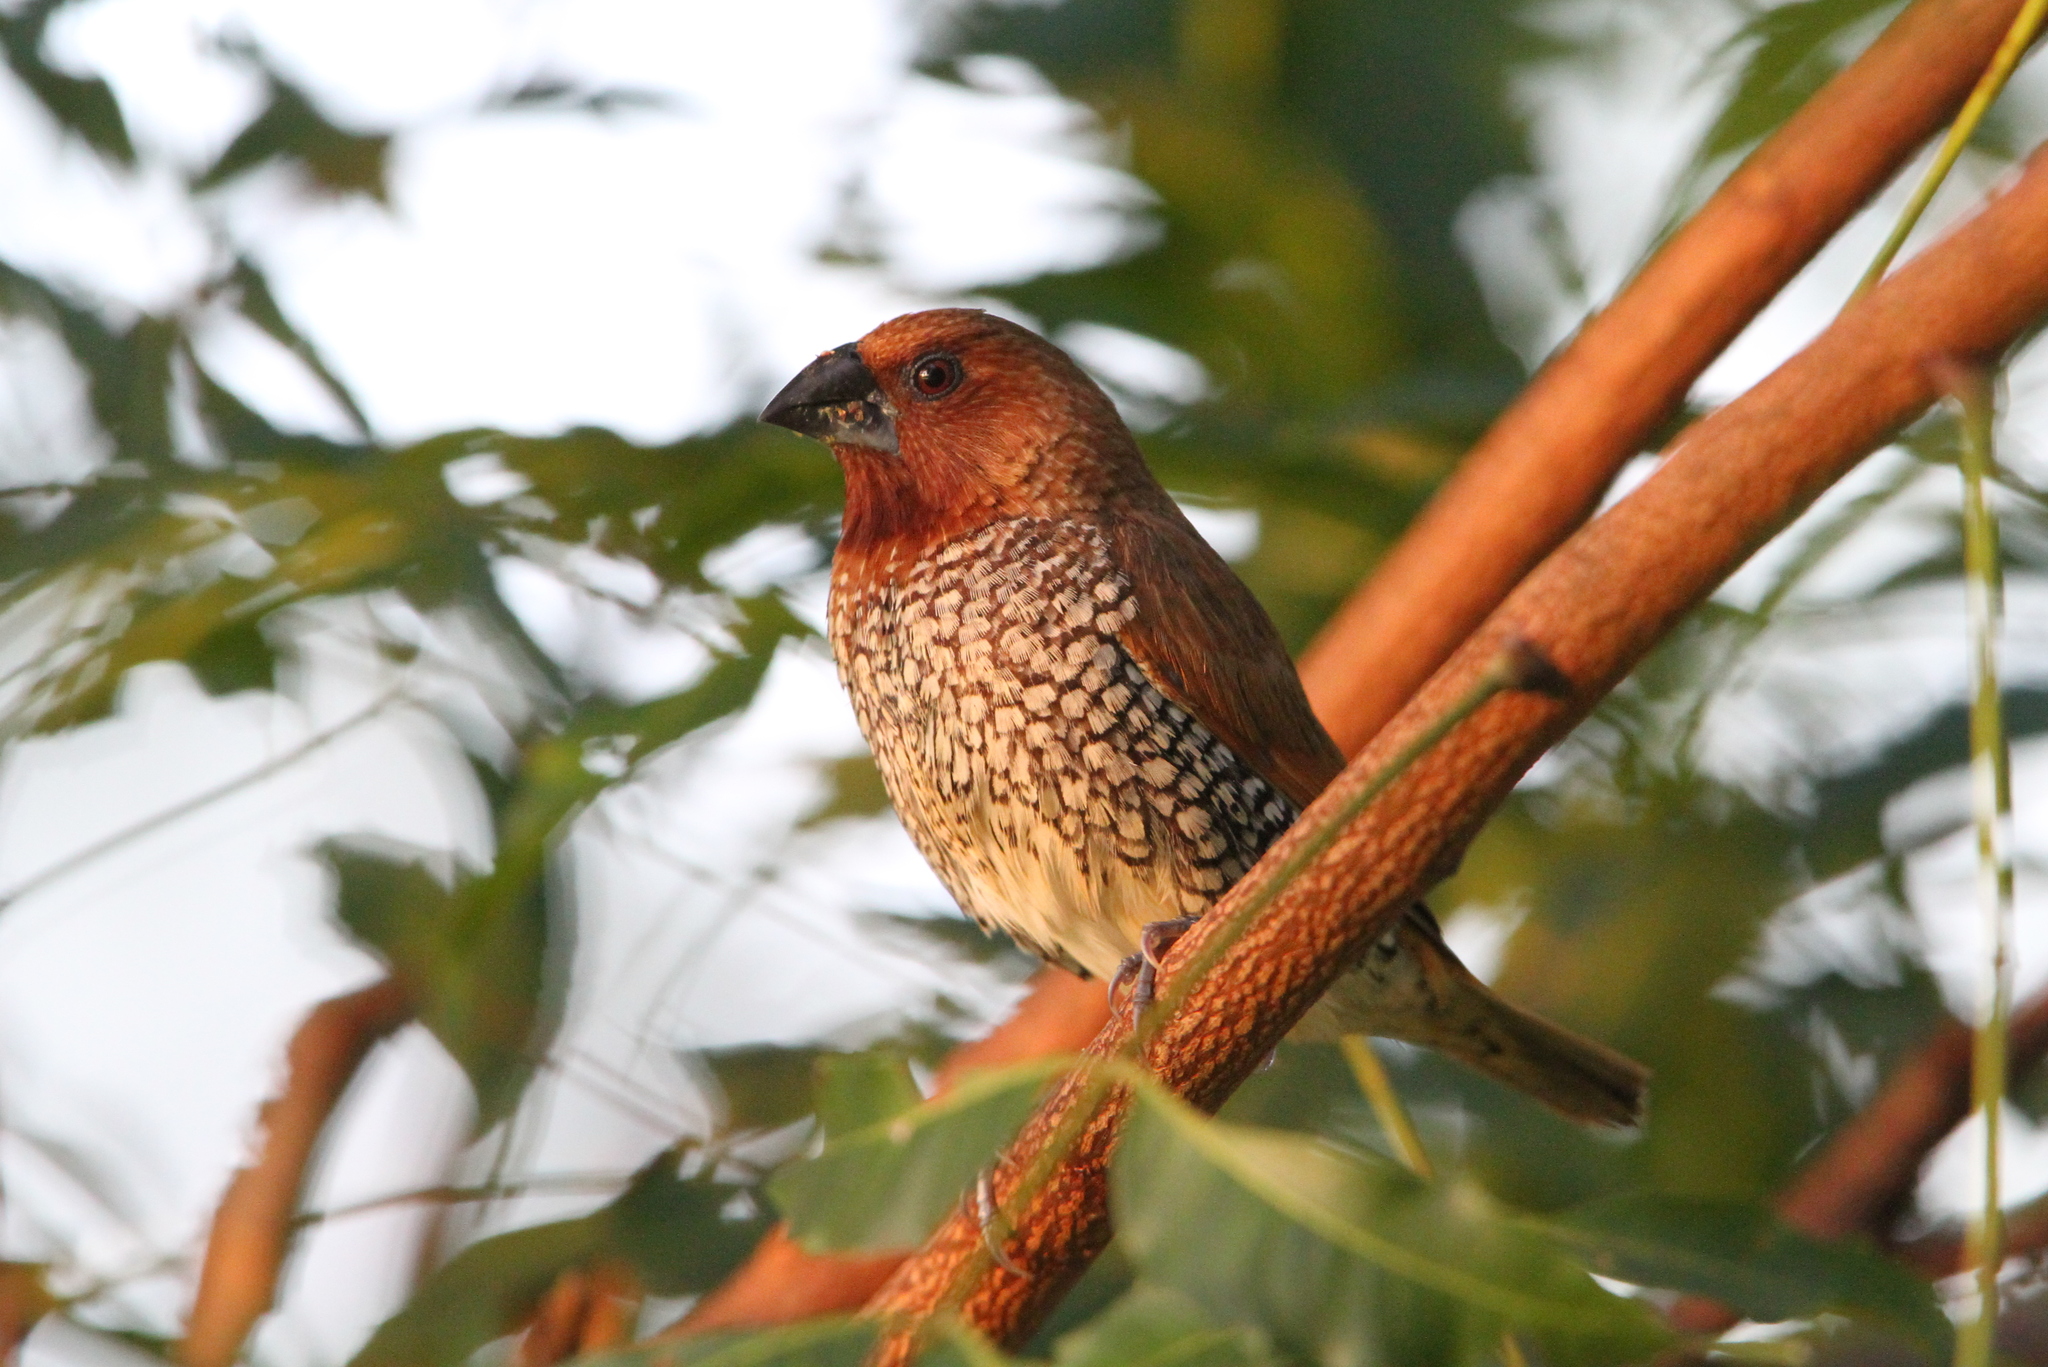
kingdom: Animalia
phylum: Chordata
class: Aves
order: Passeriformes
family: Estrildidae
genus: Lonchura
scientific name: Lonchura punctulata
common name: Scaly-breasted munia
